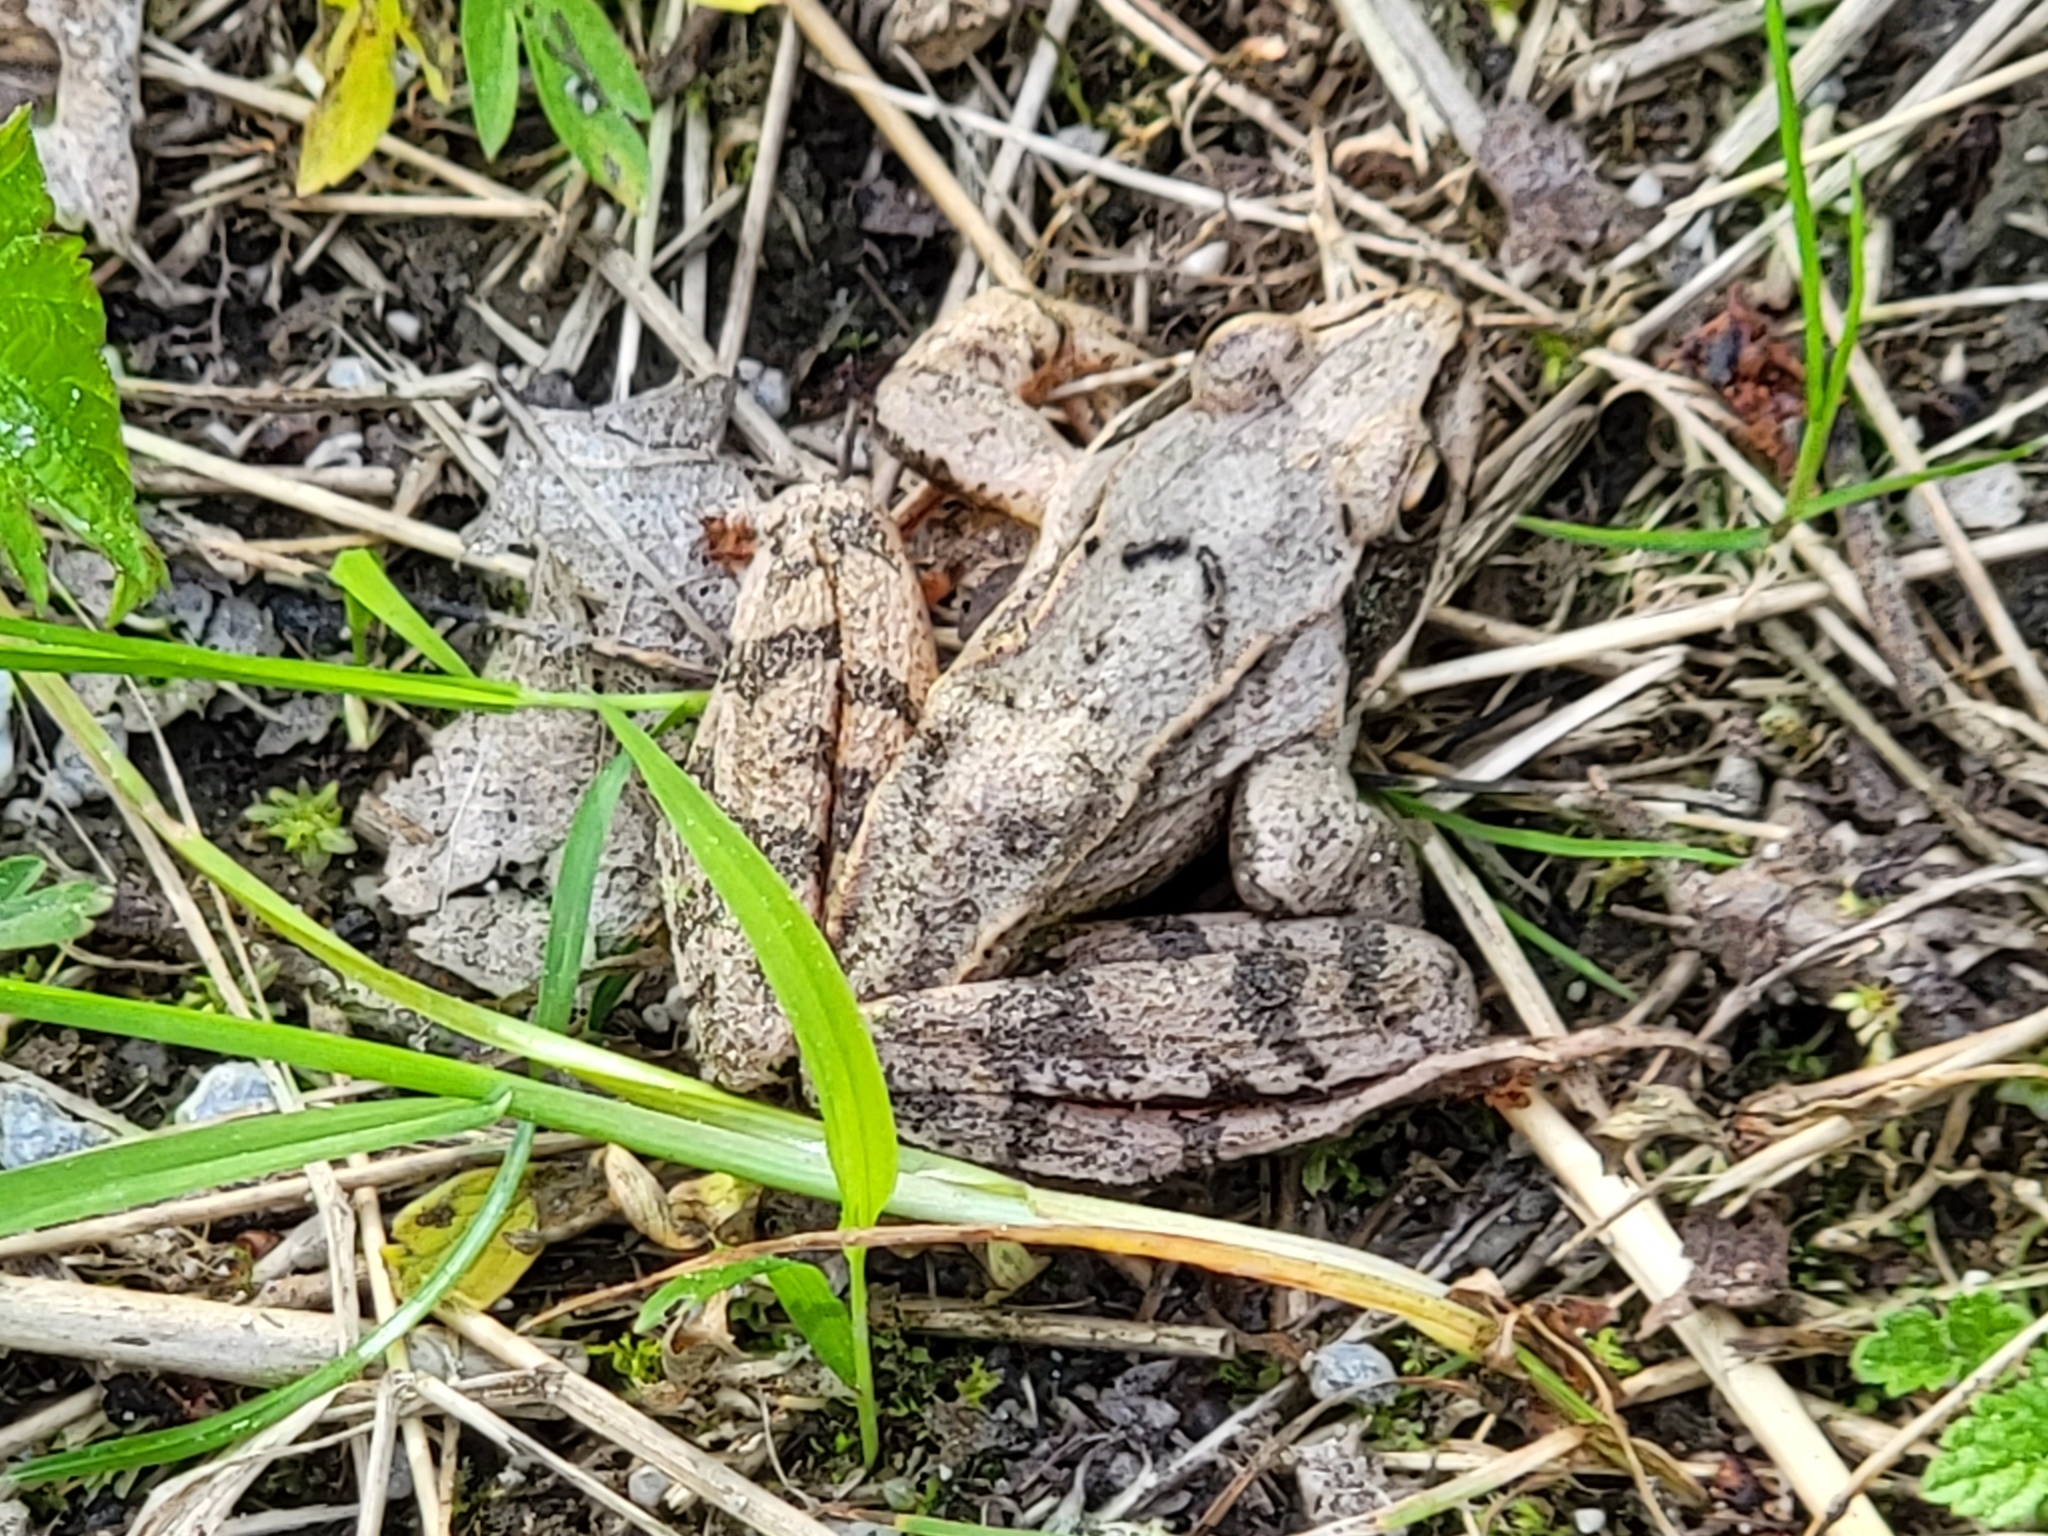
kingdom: Animalia
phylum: Chordata
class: Amphibia
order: Anura
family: Ranidae
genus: Rana
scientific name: Rana dalmatina
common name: Agile frog
